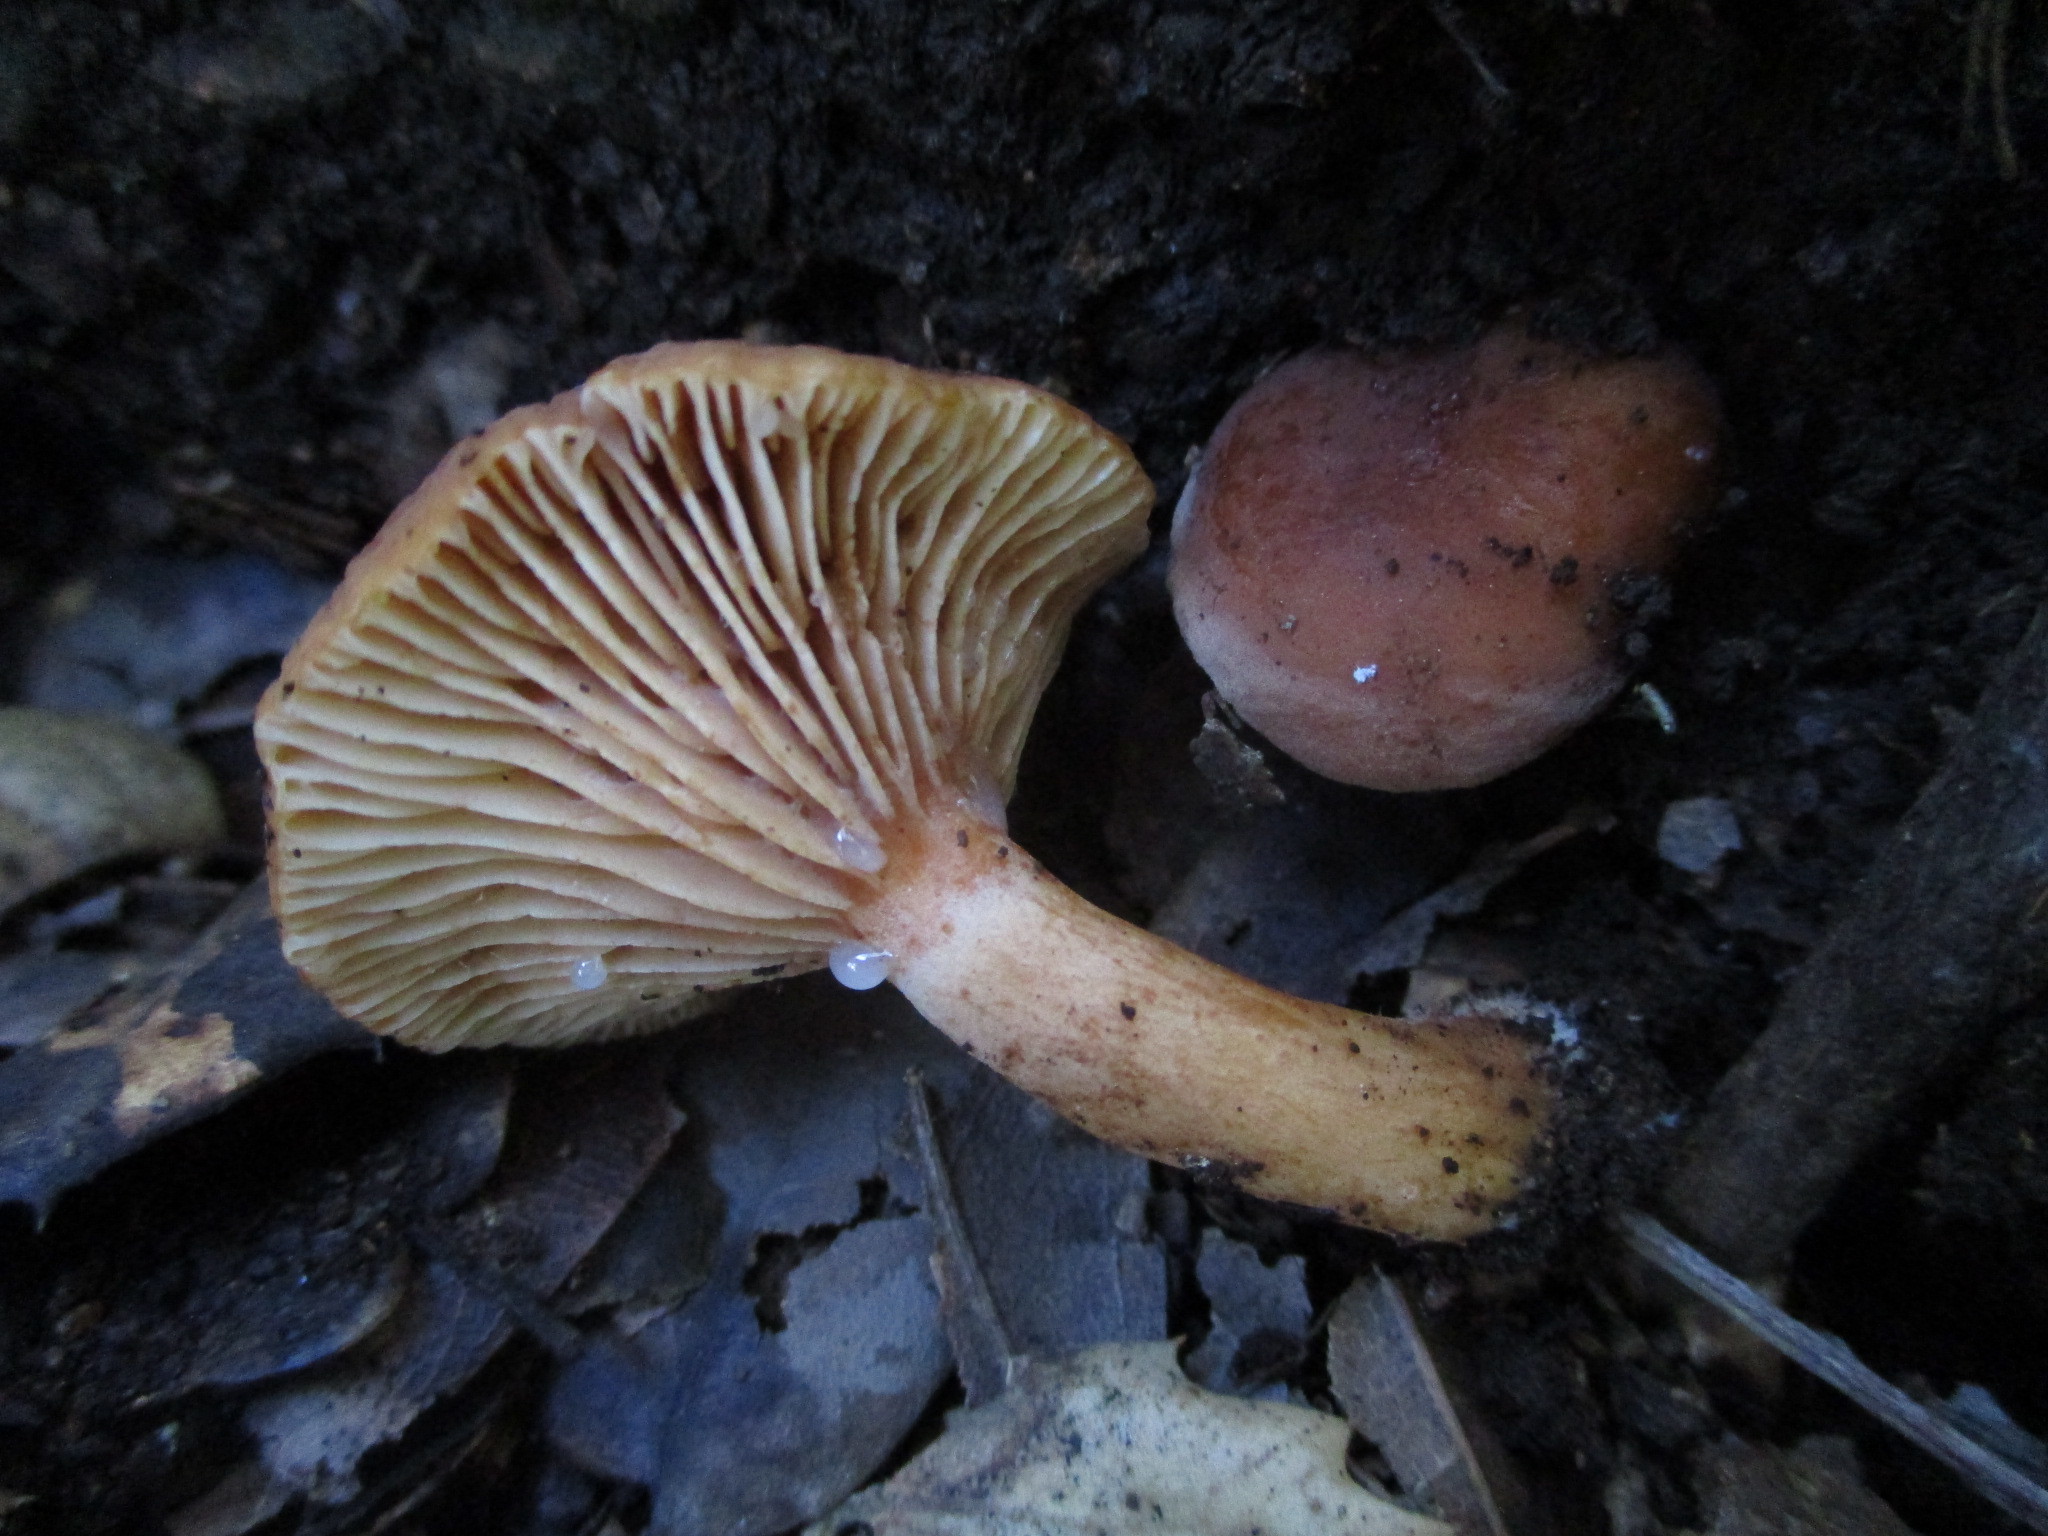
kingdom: Fungi
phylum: Basidiomycota
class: Agaricomycetes
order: Russulales
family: Russulaceae
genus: Lactarius
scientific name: Lactarius rubidus
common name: Candy cap
